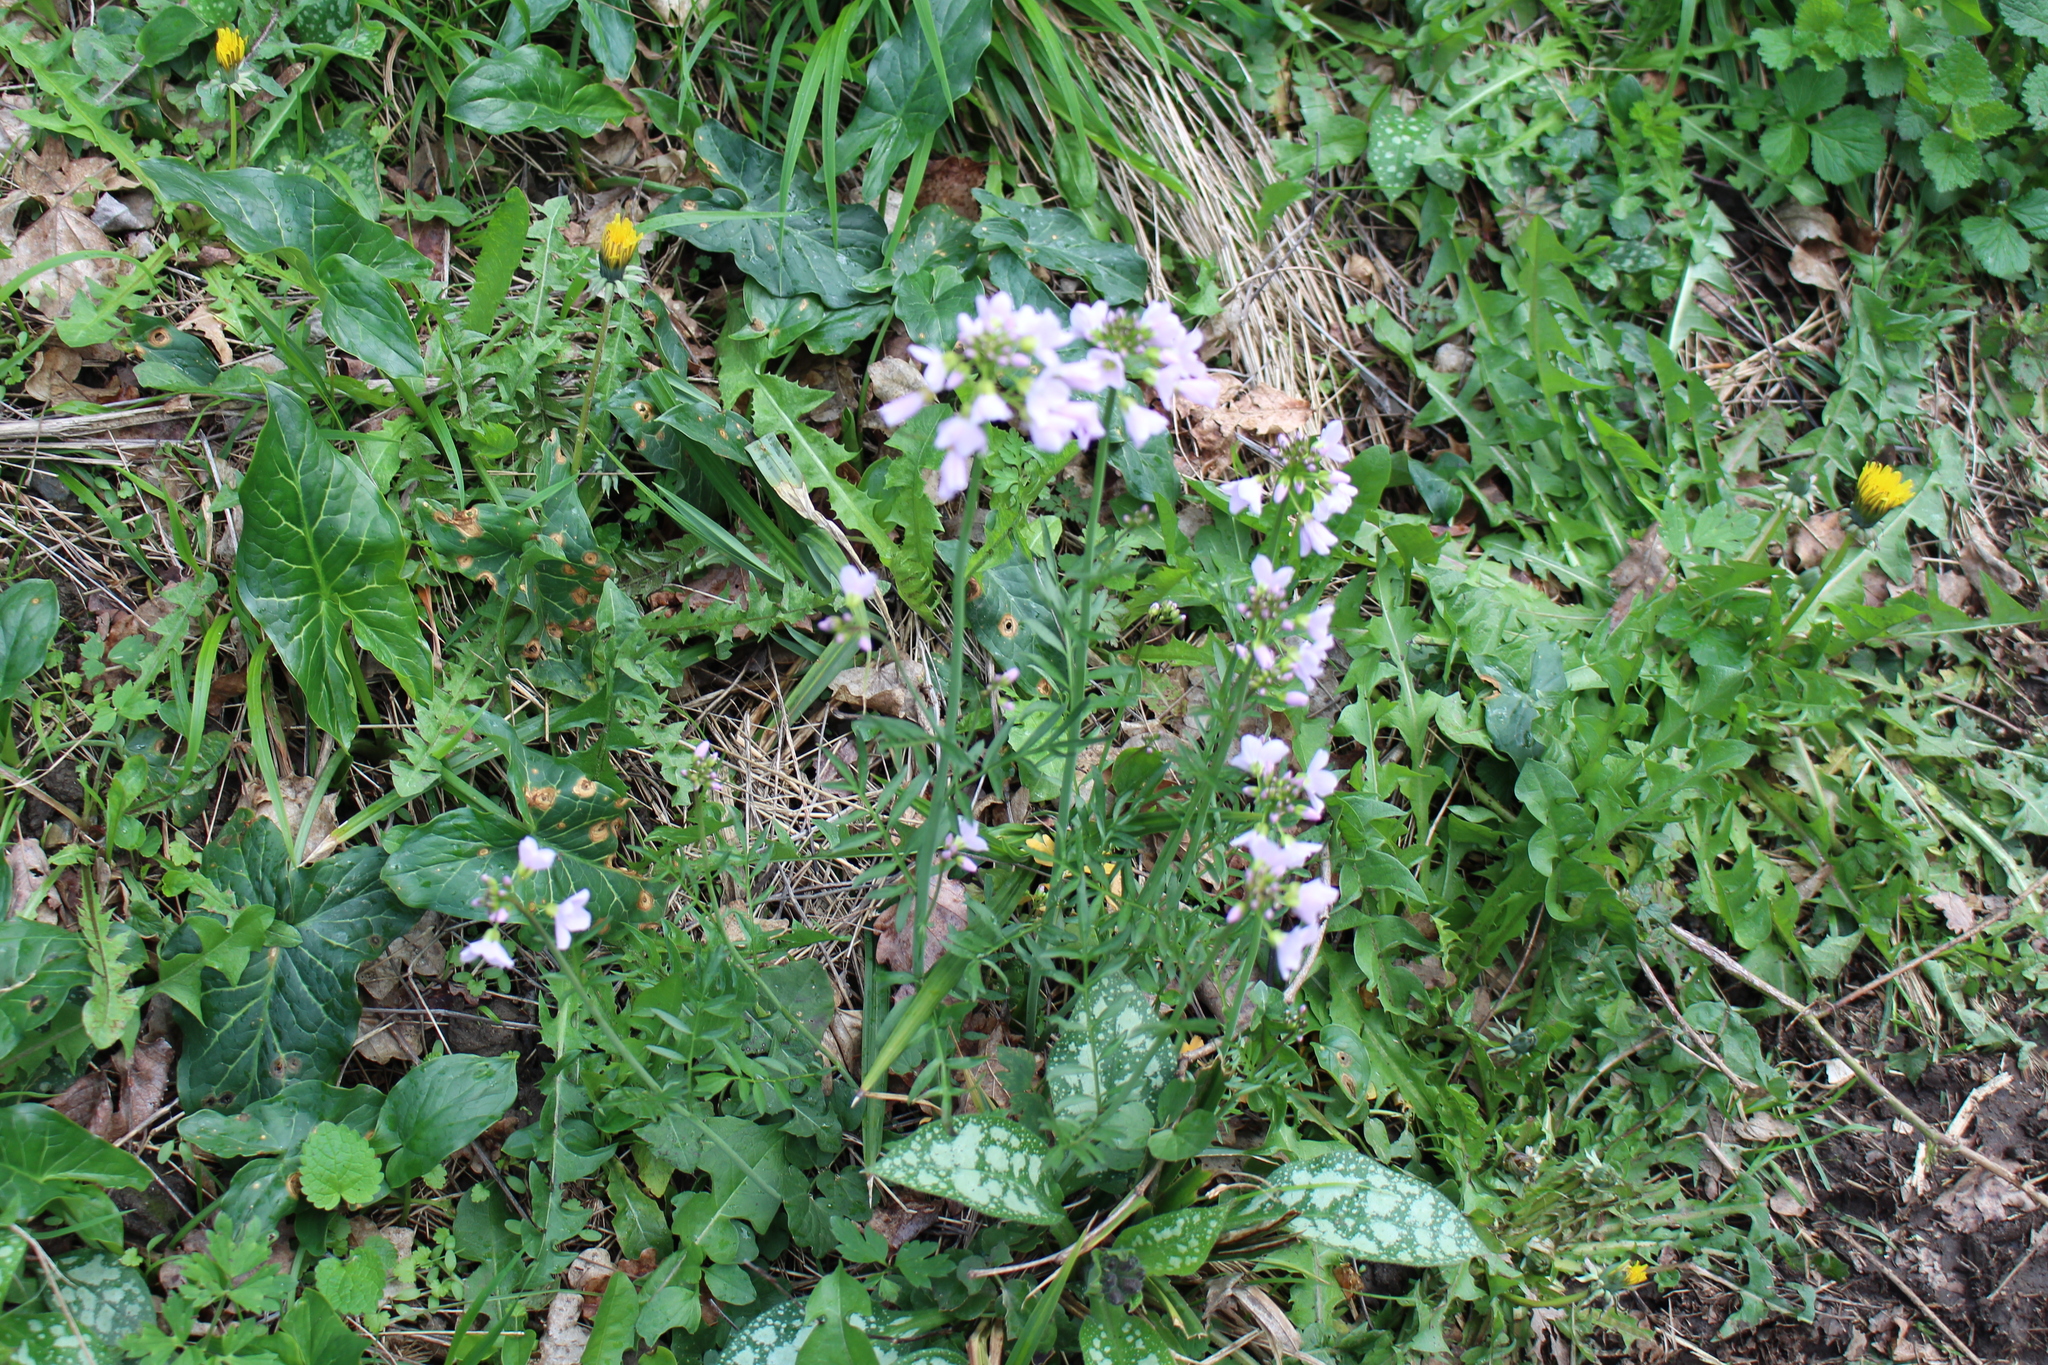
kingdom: Plantae
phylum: Tracheophyta
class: Magnoliopsida
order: Brassicales
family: Brassicaceae
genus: Cardamine
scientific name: Cardamine pratensis
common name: Cuckoo flower
